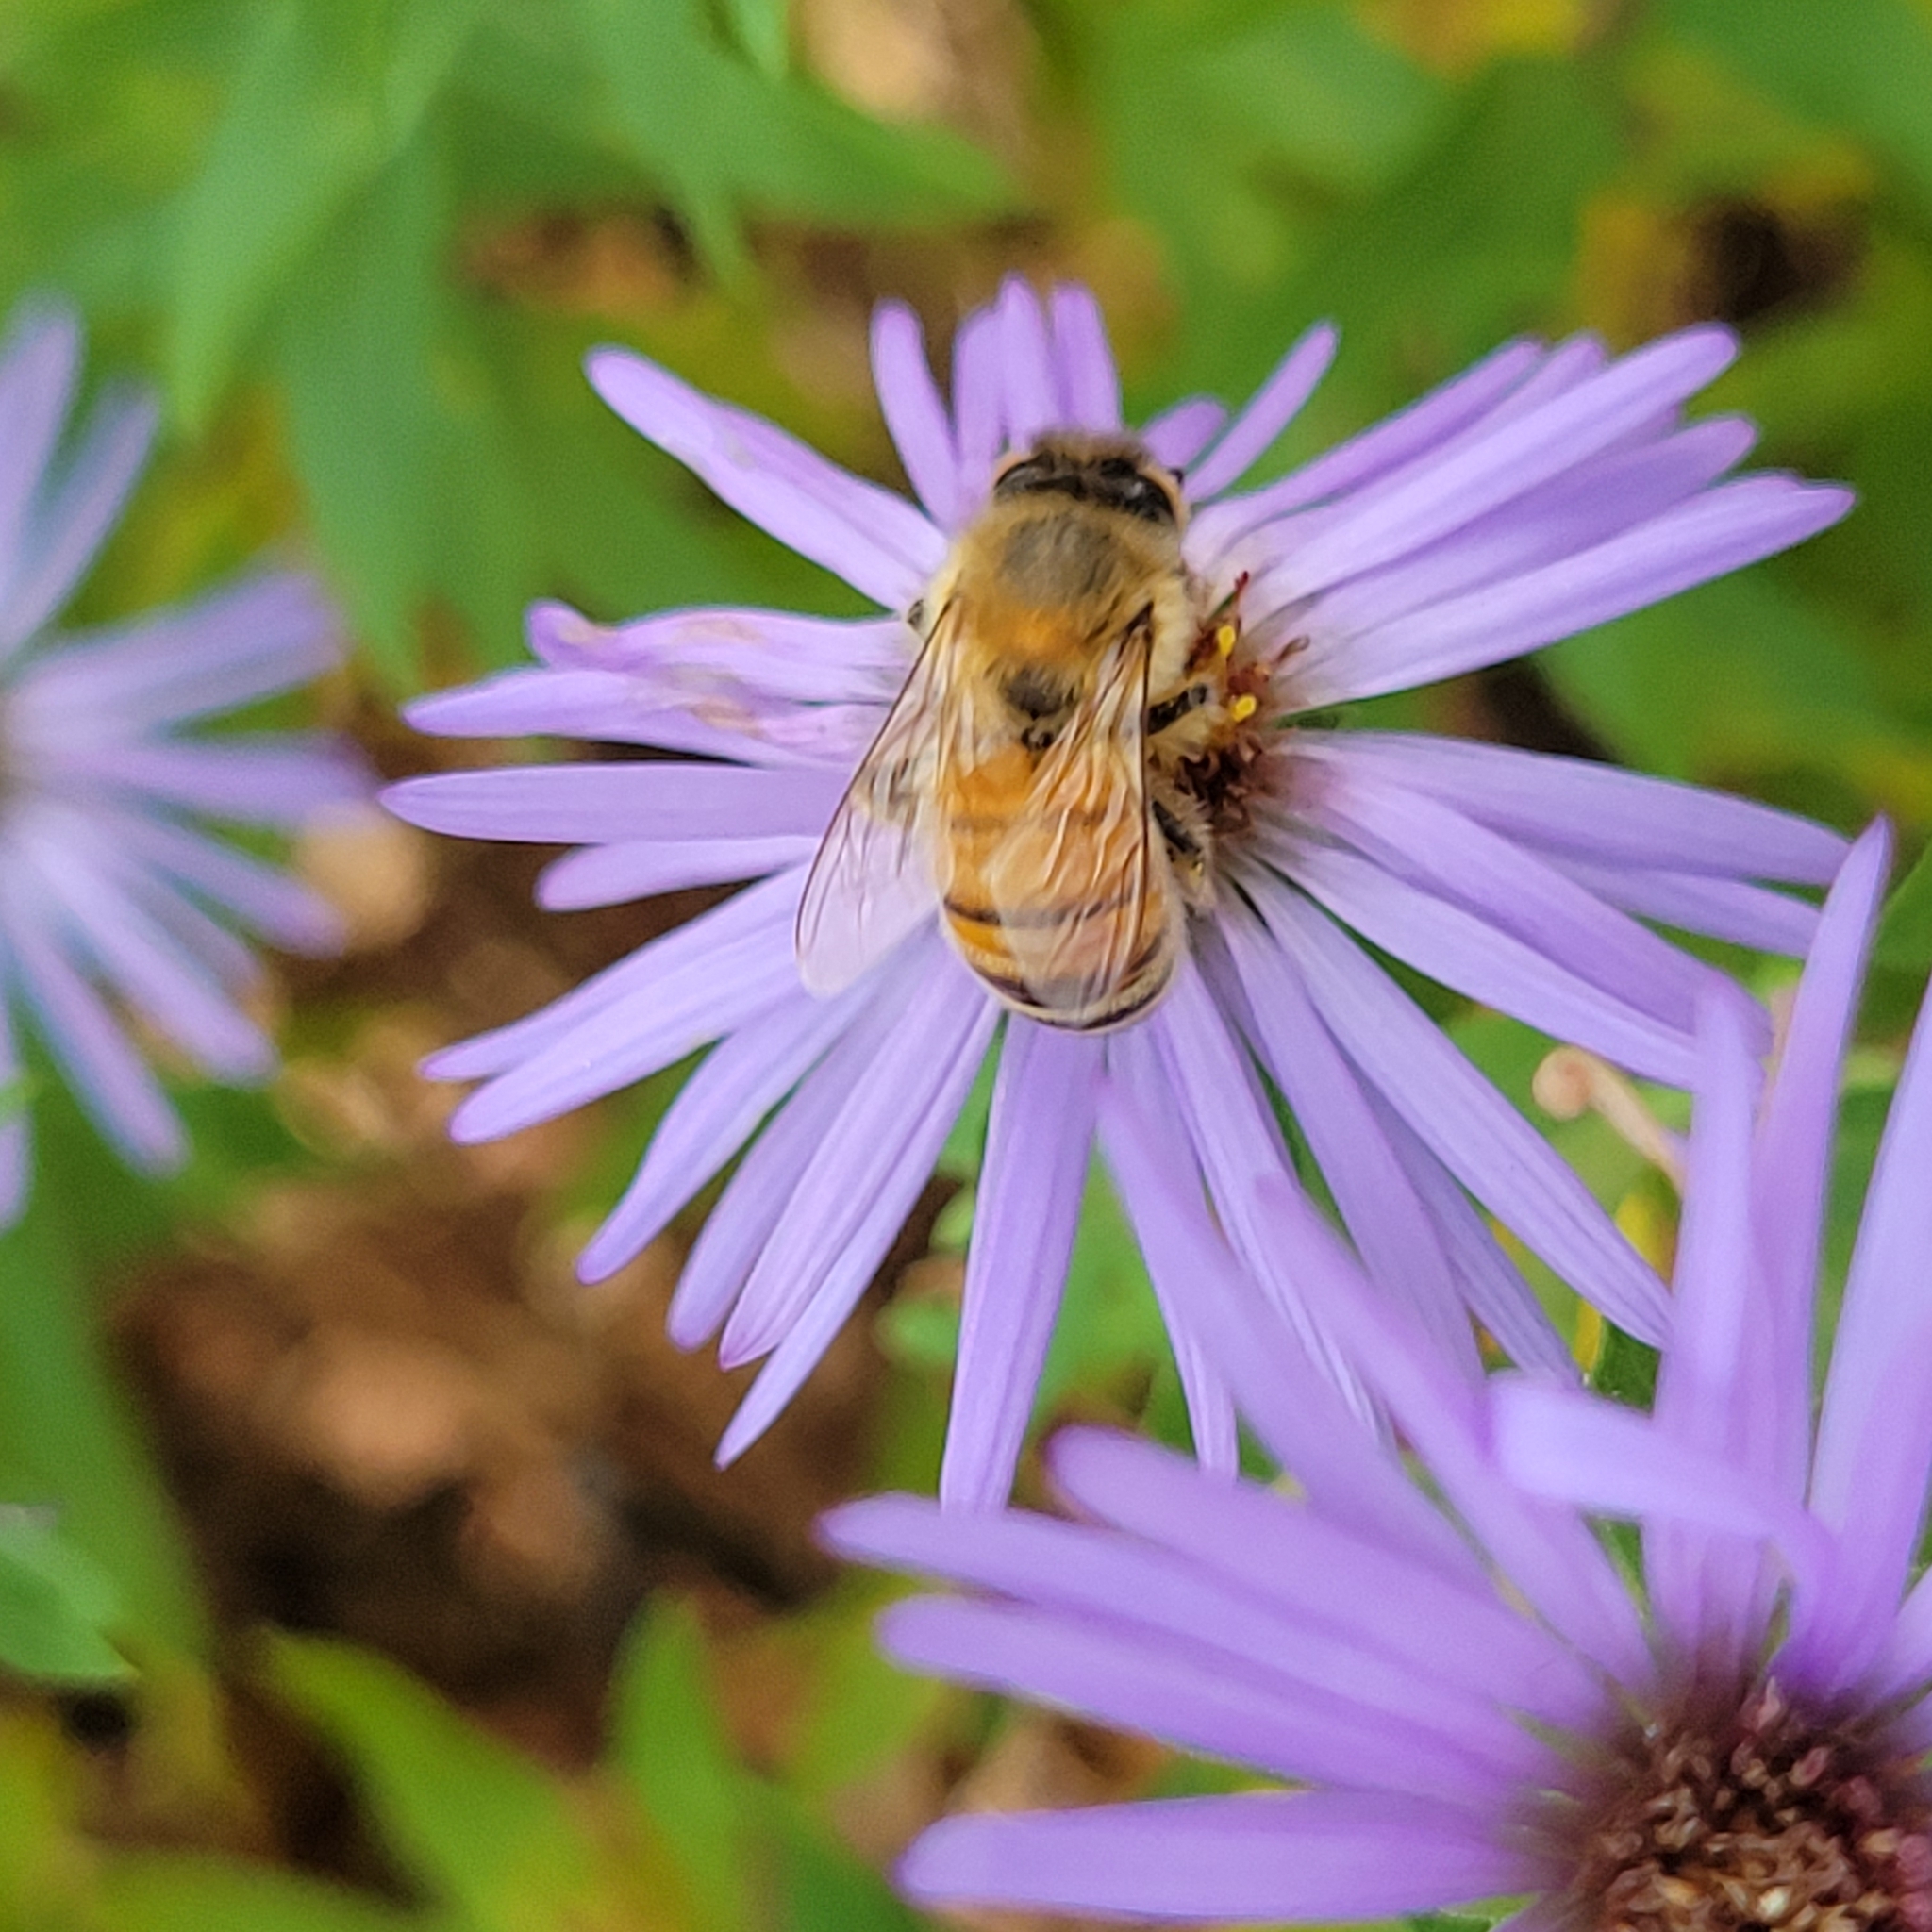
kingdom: Animalia
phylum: Arthropoda
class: Insecta
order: Hymenoptera
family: Apidae
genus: Apis
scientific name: Apis mellifera
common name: Honey bee
